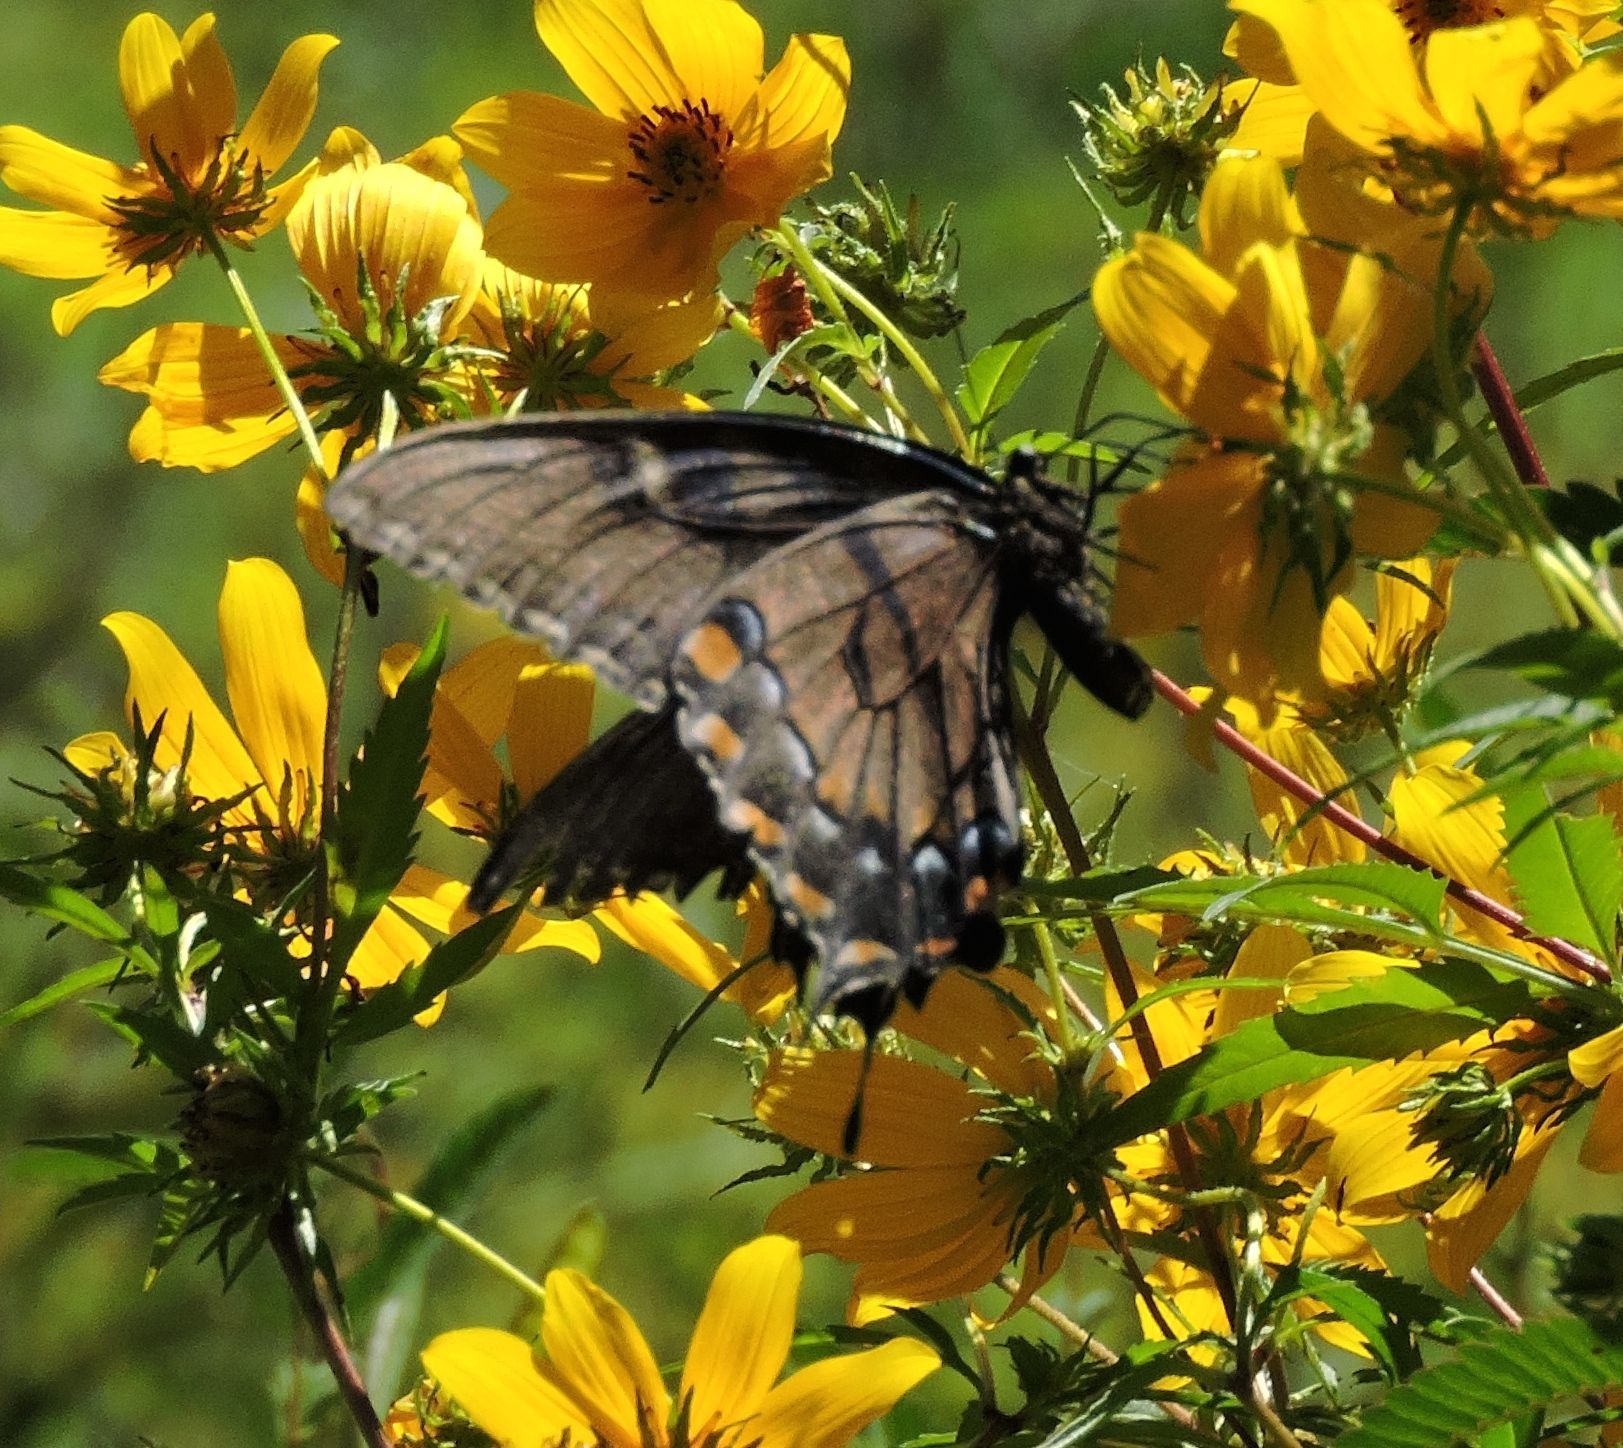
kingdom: Animalia
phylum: Arthropoda
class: Insecta
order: Lepidoptera
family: Papilionidae
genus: Papilio
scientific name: Papilio glaucus
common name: Tiger swallowtail
